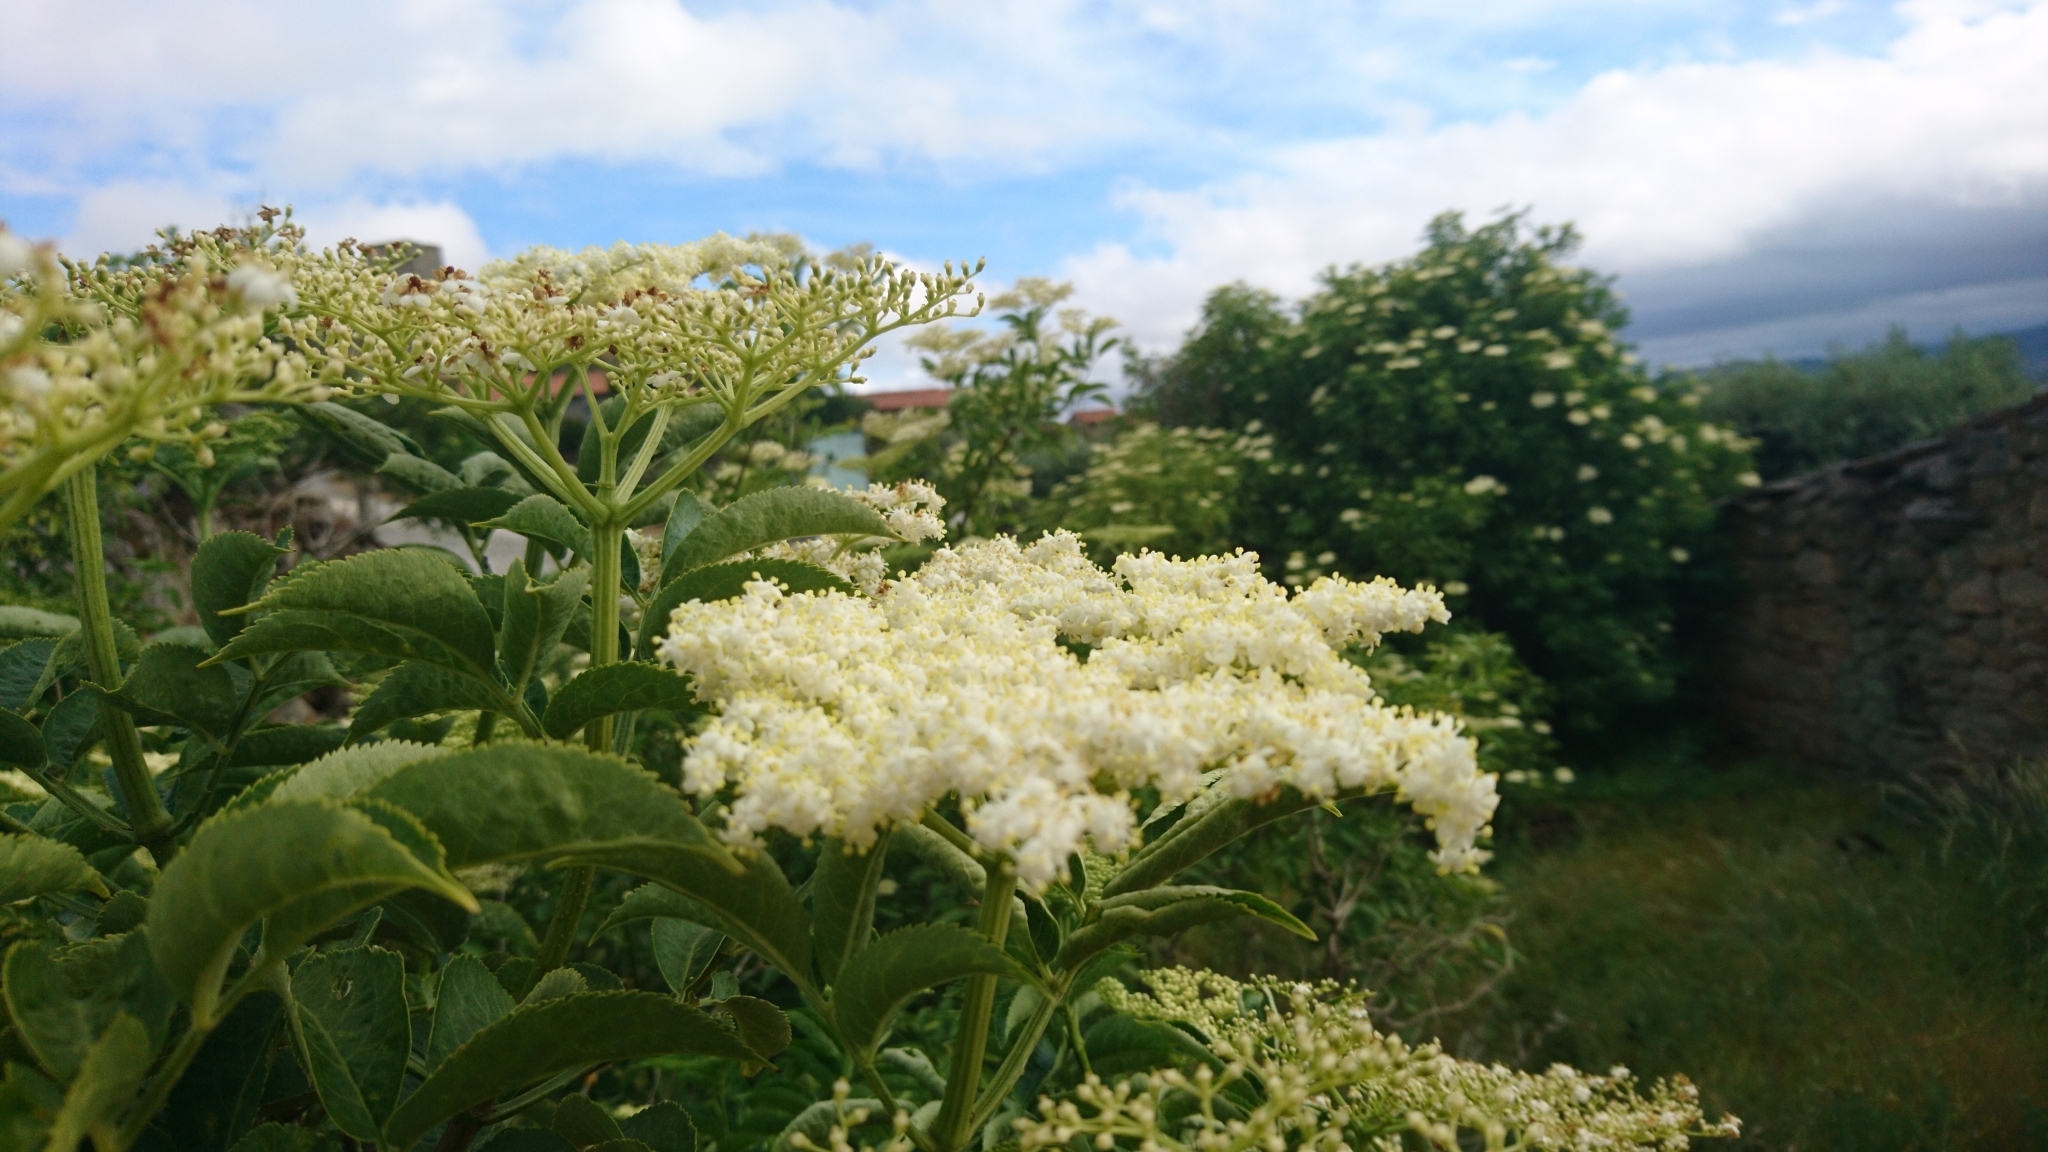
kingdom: Plantae
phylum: Tracheophyta
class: Magnoliopsida
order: Dipsacales
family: Viburnaceae
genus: Sambucus
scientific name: Sambucus nigra
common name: Elder
